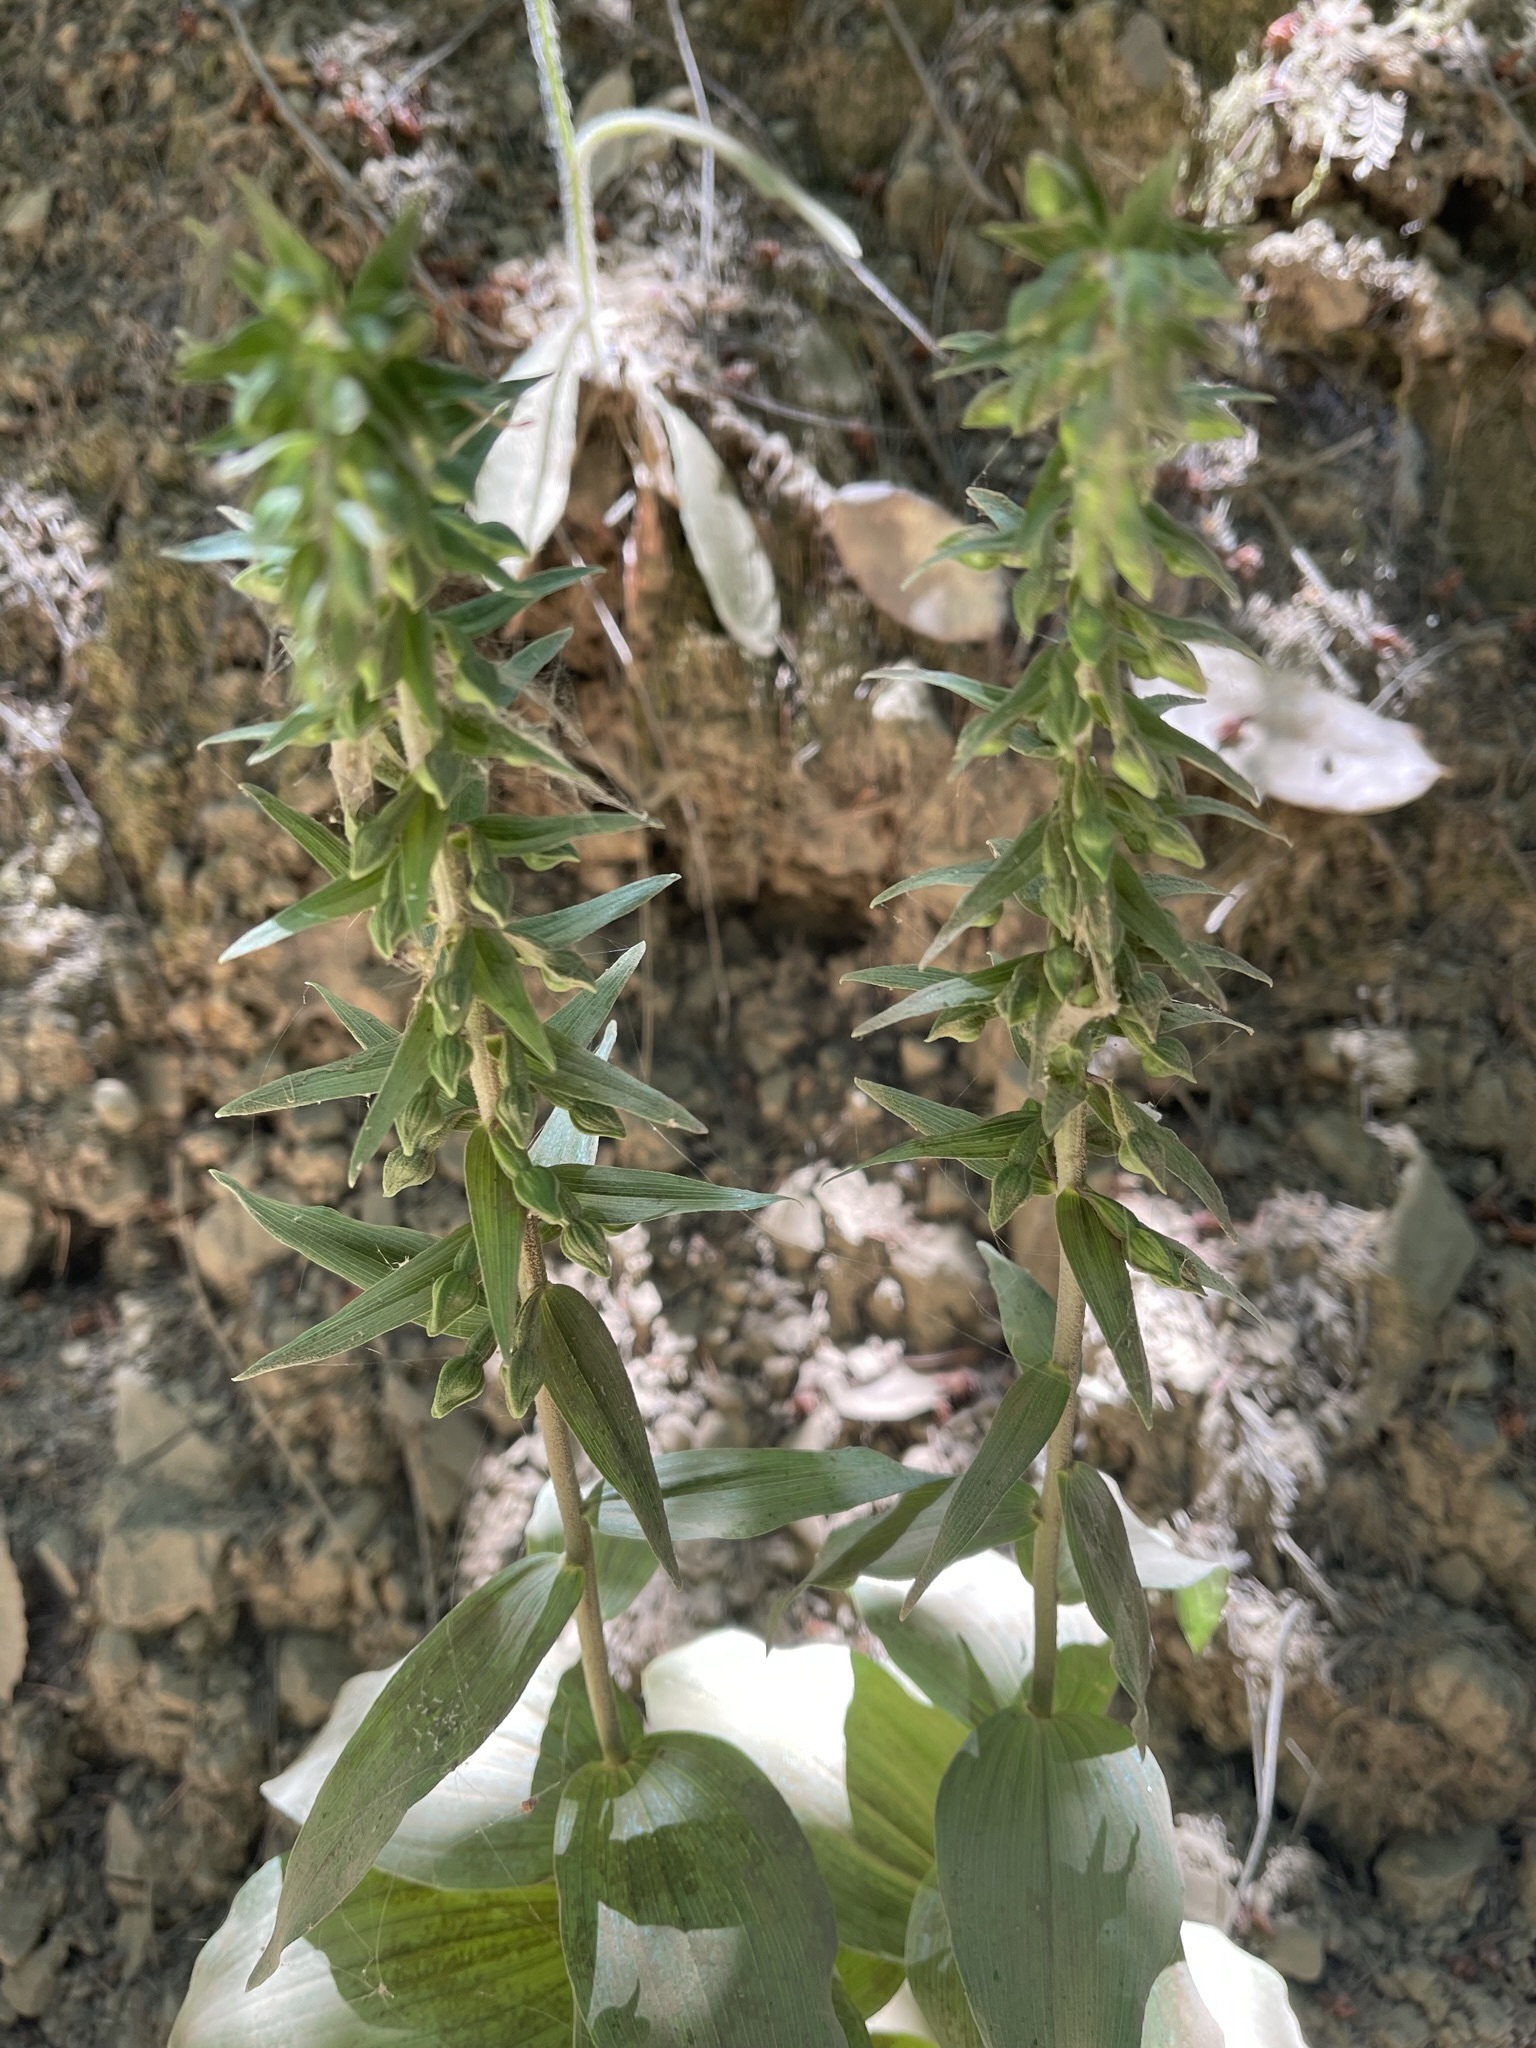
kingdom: Plantae
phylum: Tracheophyta
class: Liliopsida
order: Asparagales
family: Orchidaceae
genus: Epipactis
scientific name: Epipactis helleborine
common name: Broad-leaved helleborine
